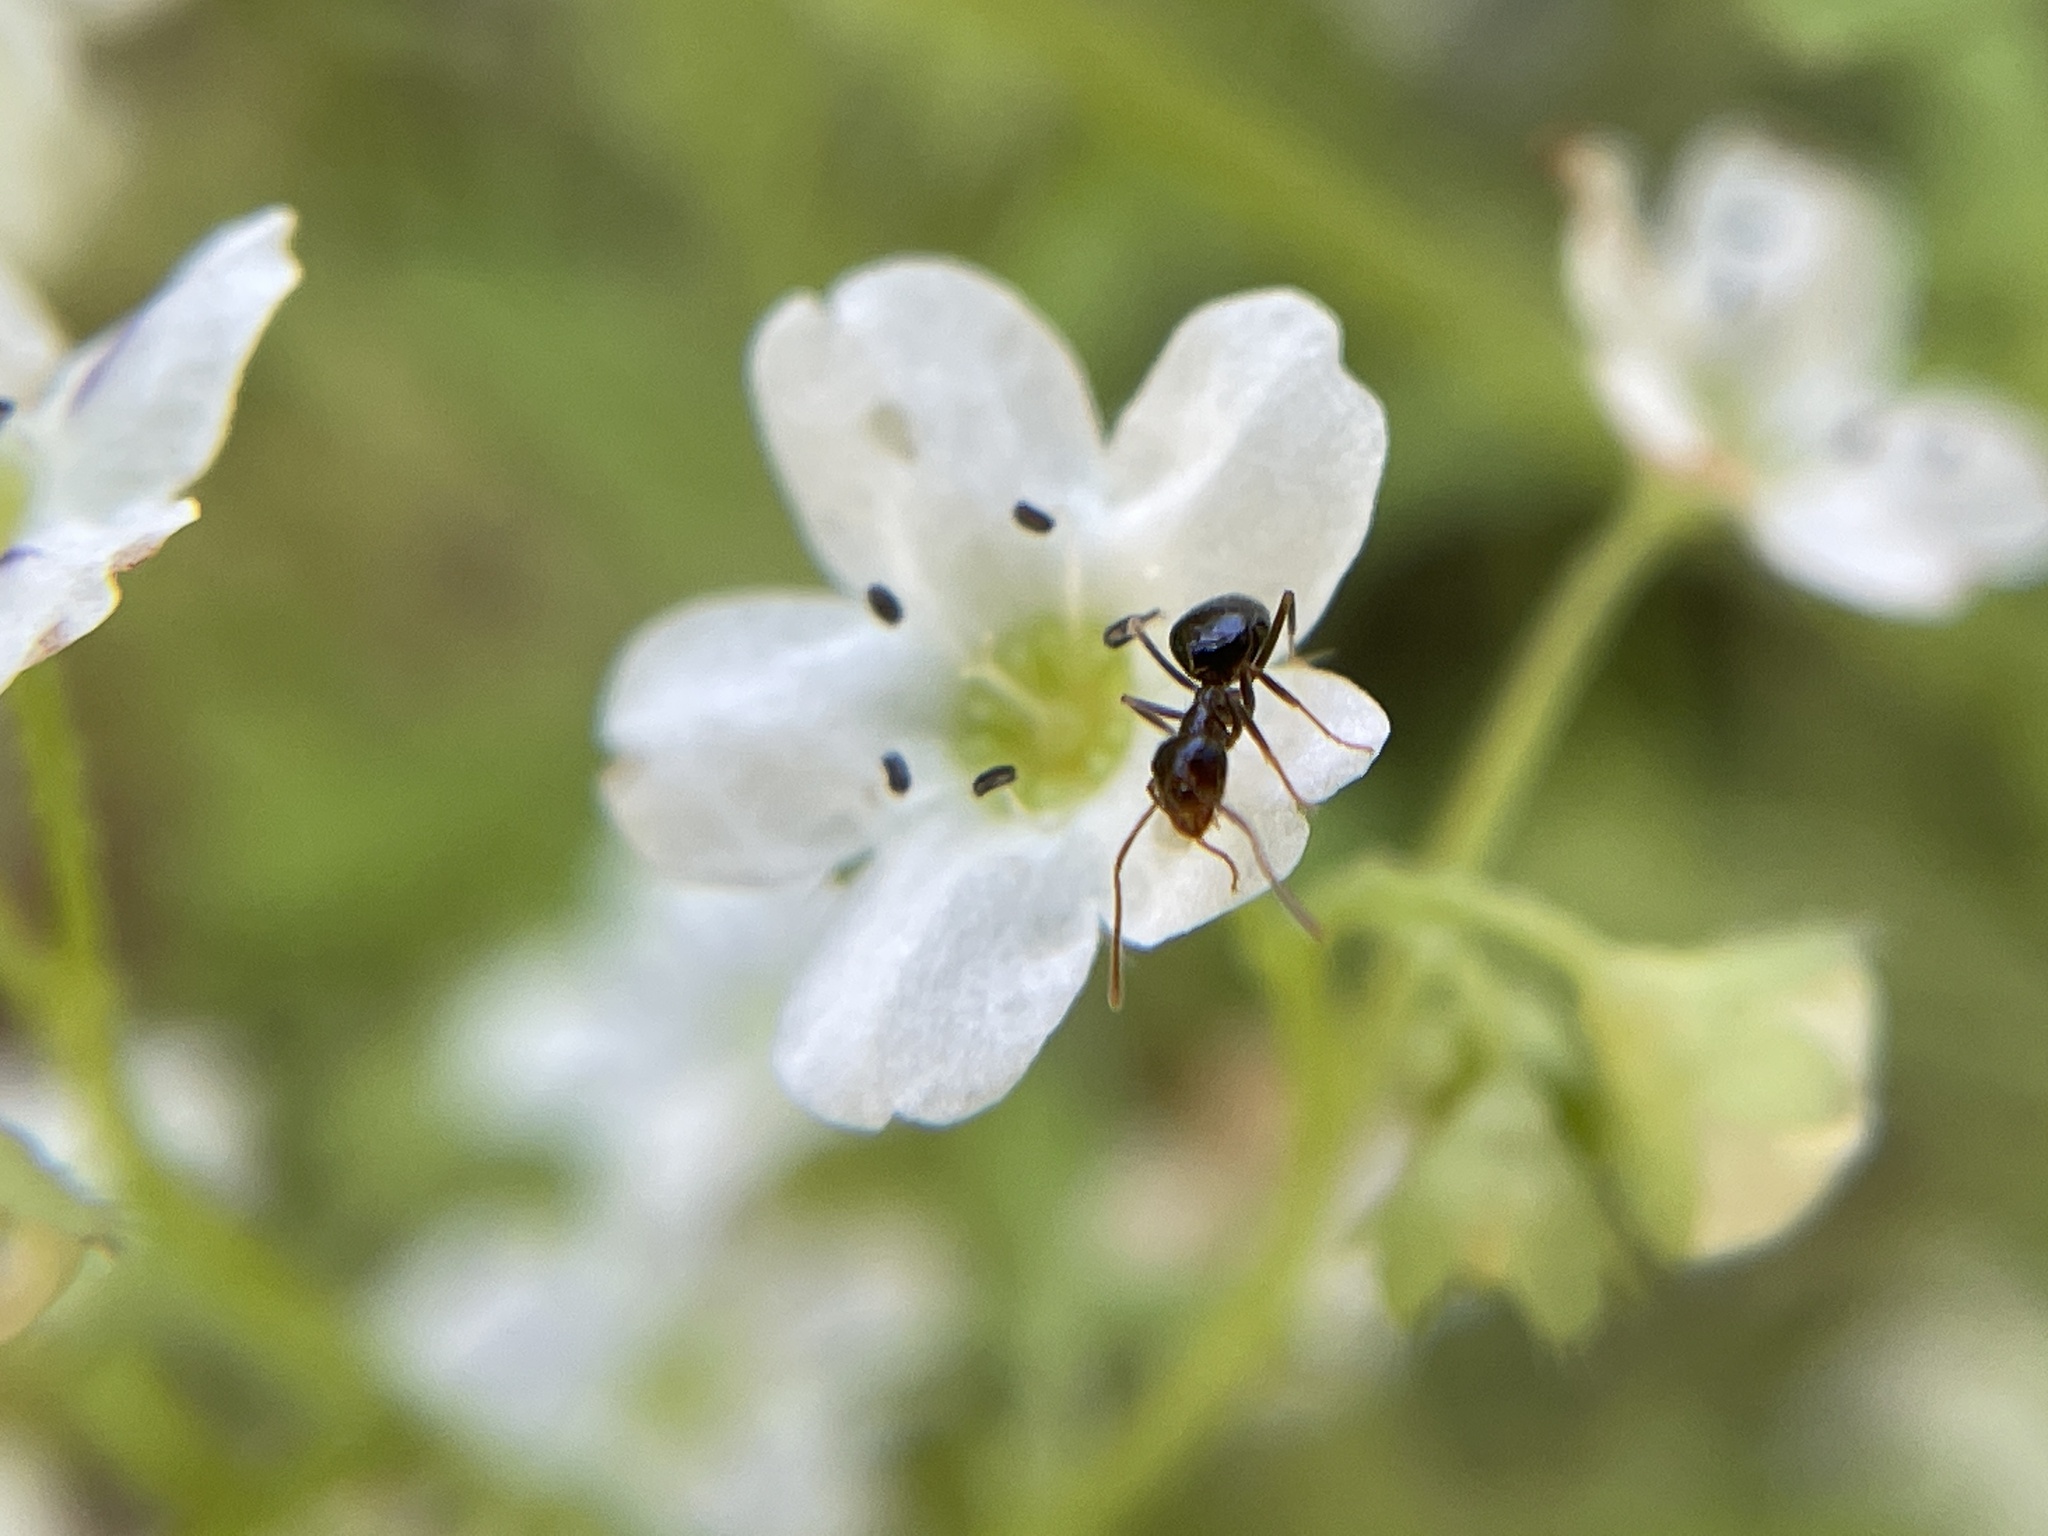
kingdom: Animalia
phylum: Arthropoda
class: Insecta
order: Hymenoptera
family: Formicidae
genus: Prenolepis
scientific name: Prenolepis imparis
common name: Small honey ant
